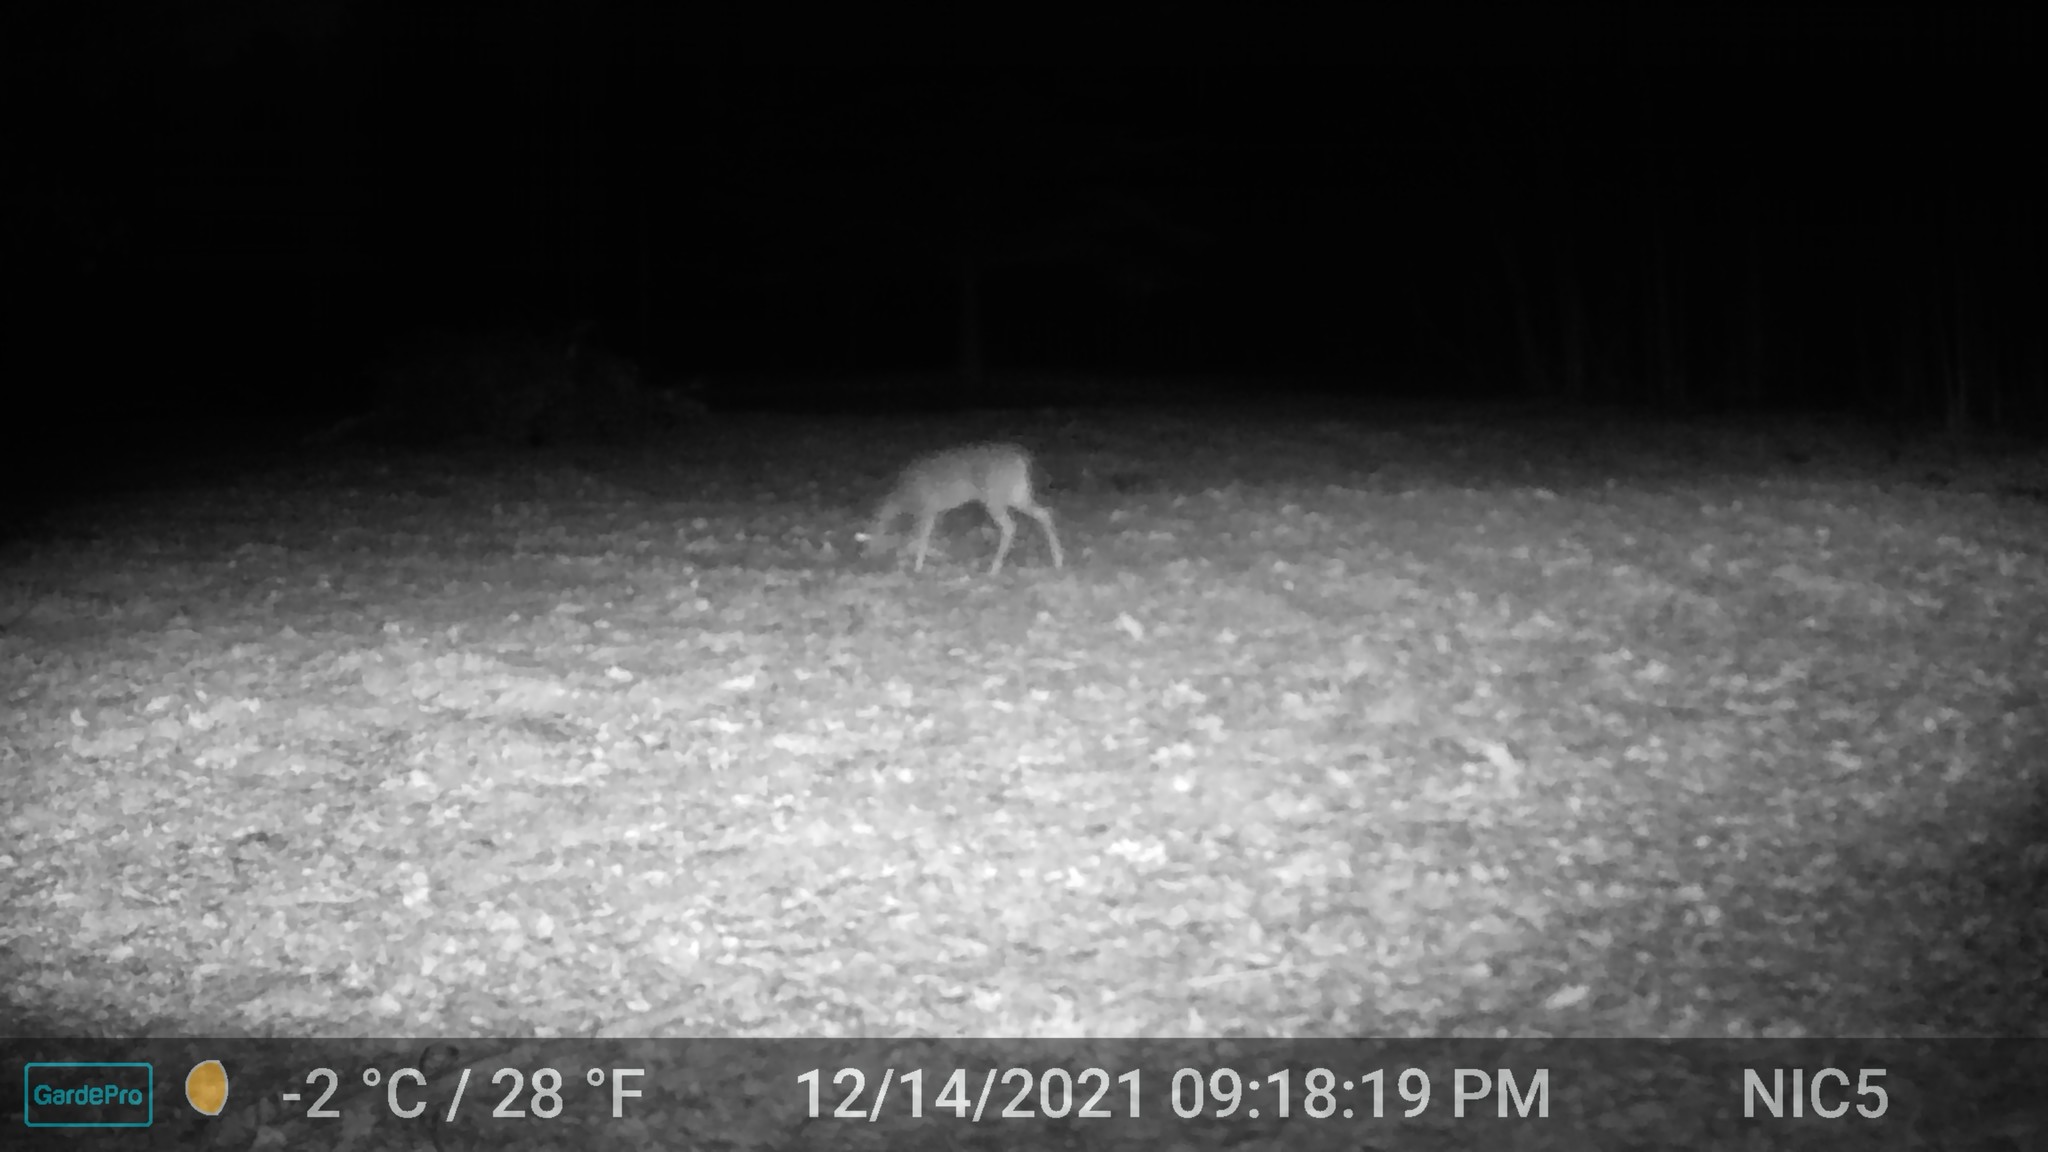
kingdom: Animalia
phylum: Chordata
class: Mammalia
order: Artiodactyla
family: Cervidae
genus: Odocoileus
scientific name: Odocoileus virginianus
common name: White-tailed deer
